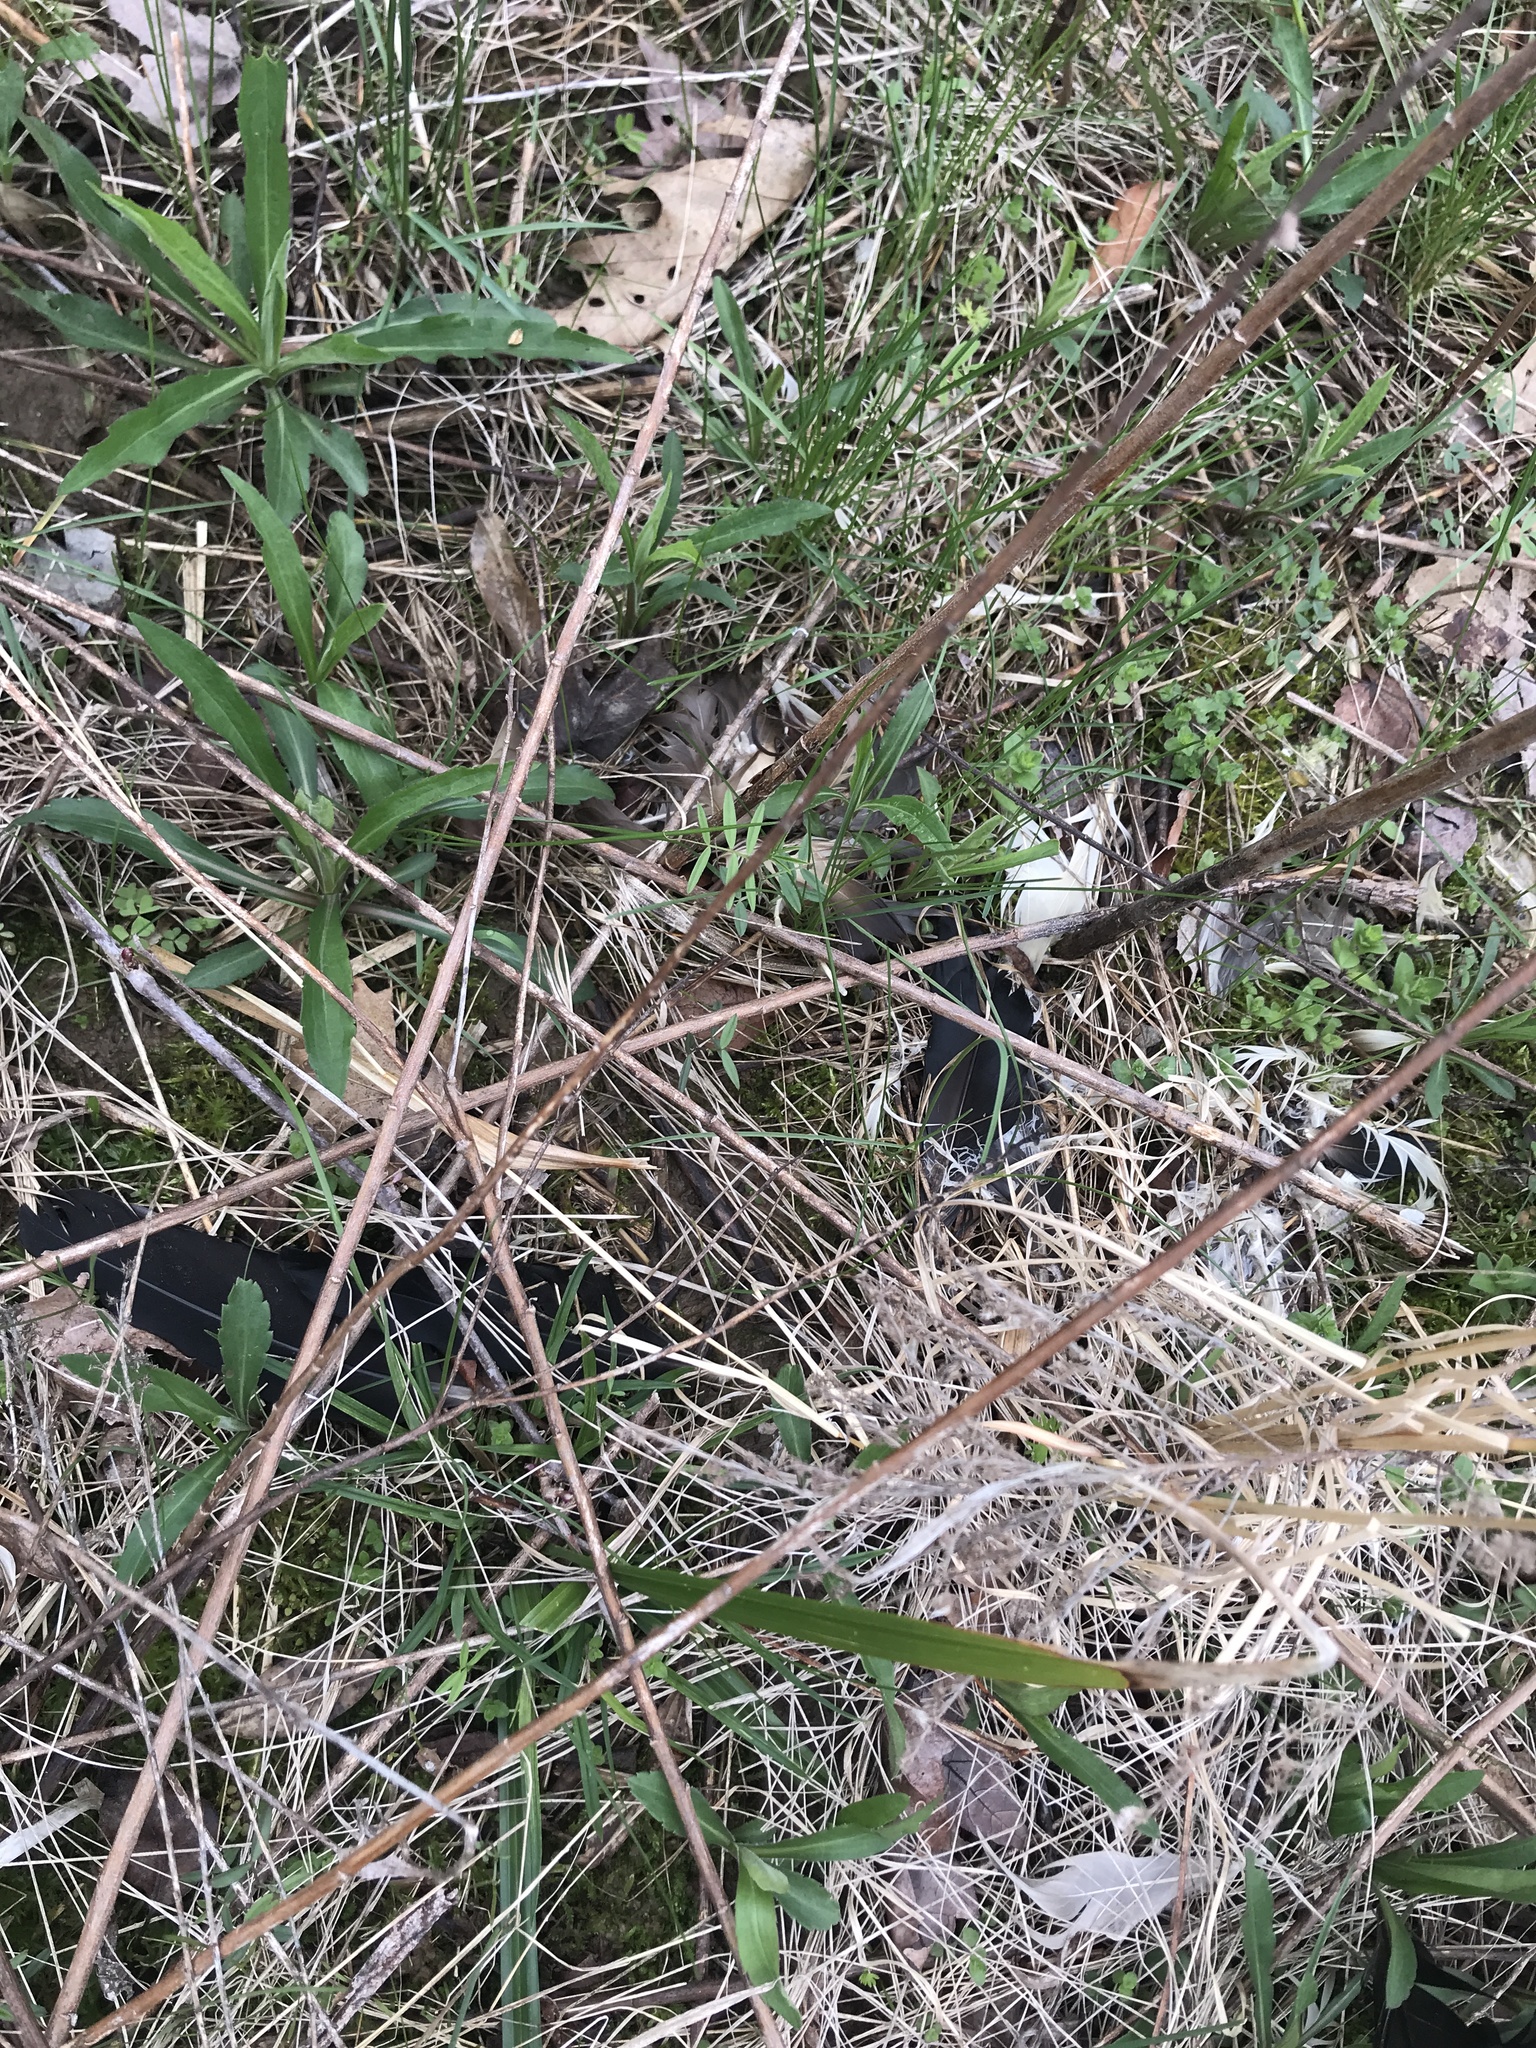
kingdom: Animalia
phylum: Chordata
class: Aves
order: Anseriformes
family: Anatidae
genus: Branta
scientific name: Branta canadensis
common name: Canada goose
